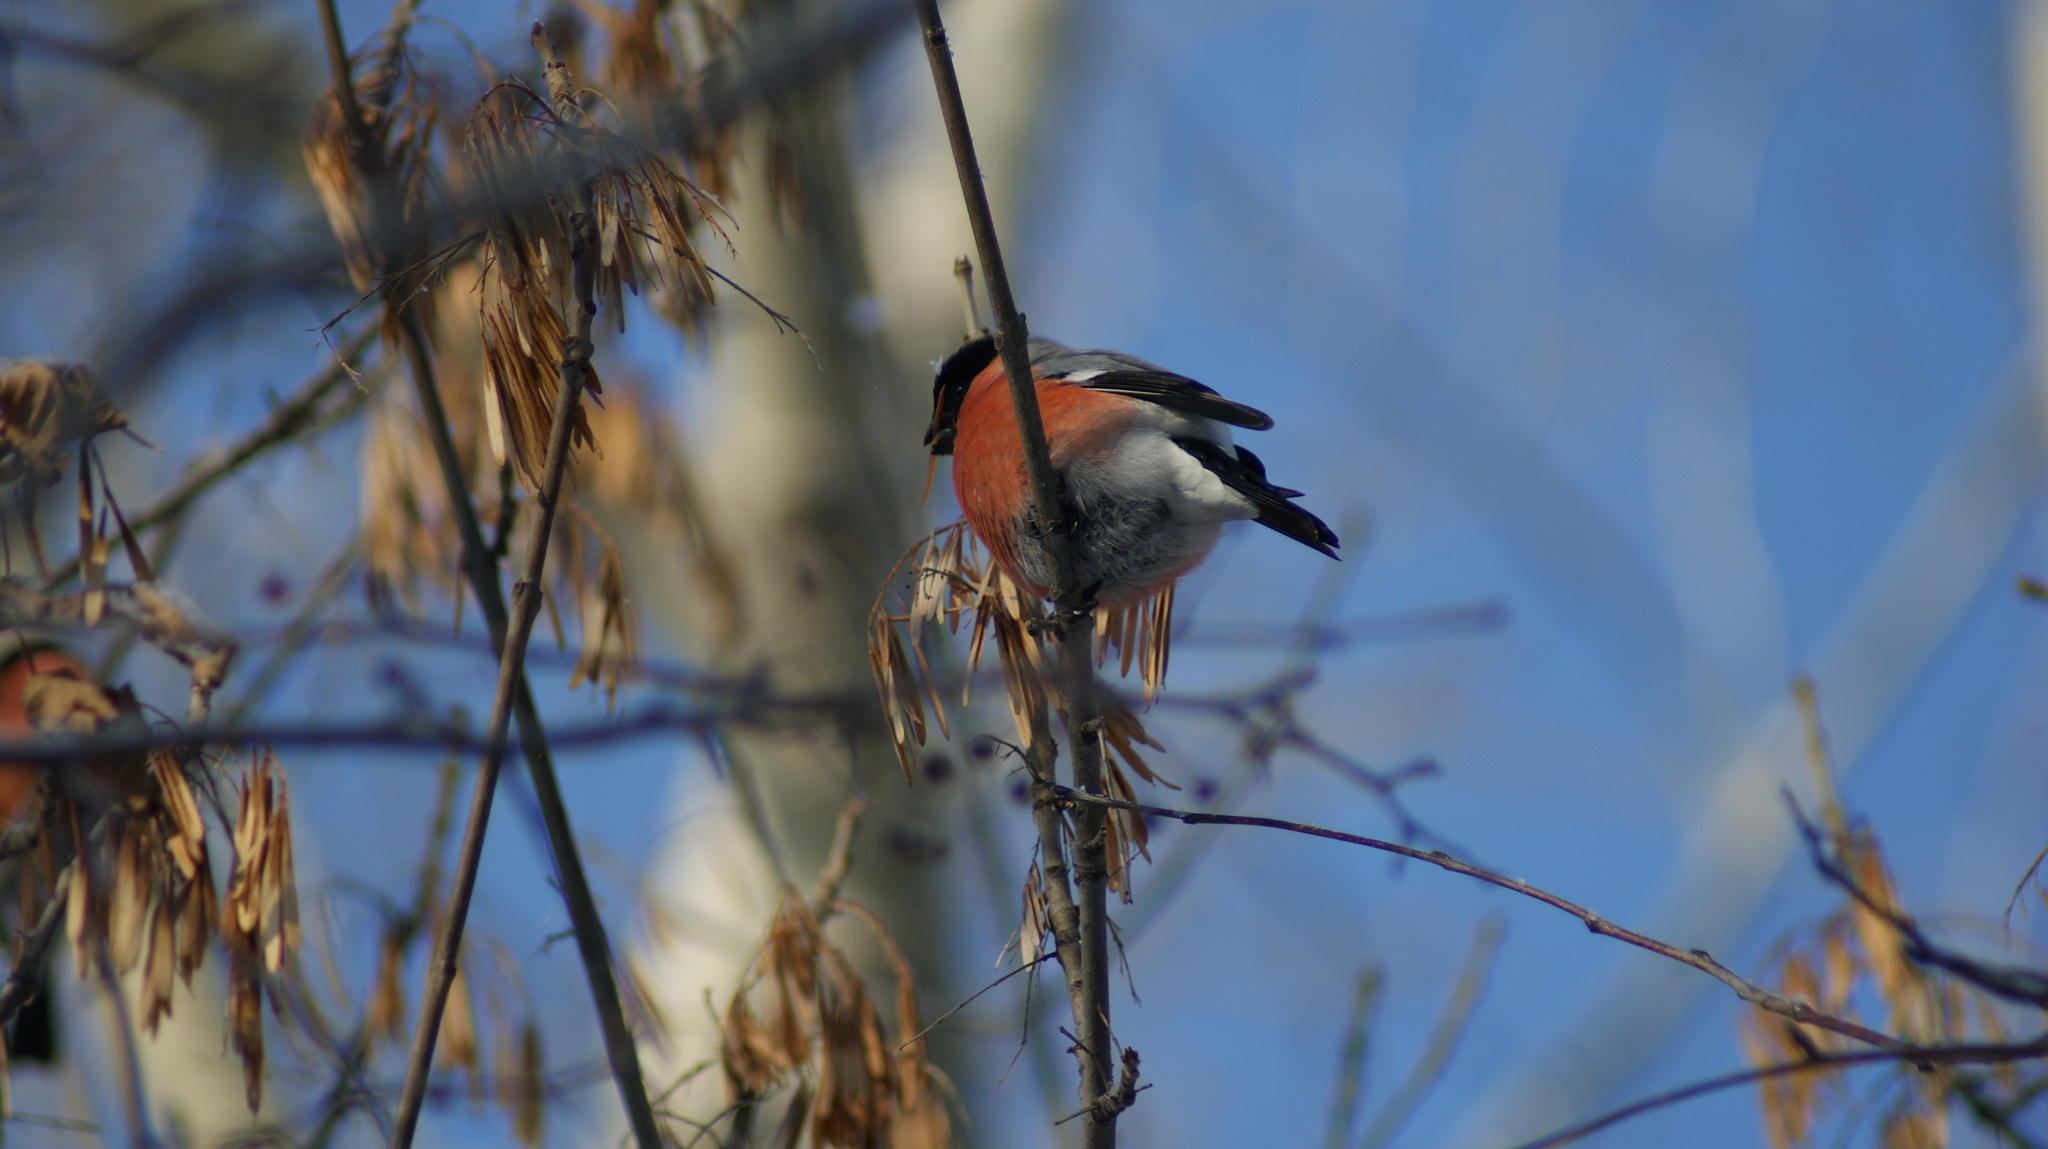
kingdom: Animalia
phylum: Chordata
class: Aves
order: Passeriformes
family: Fringillidae
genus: Pyrrhula
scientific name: Pyrrhula pyrrhula
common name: Eurasian bullfinch
